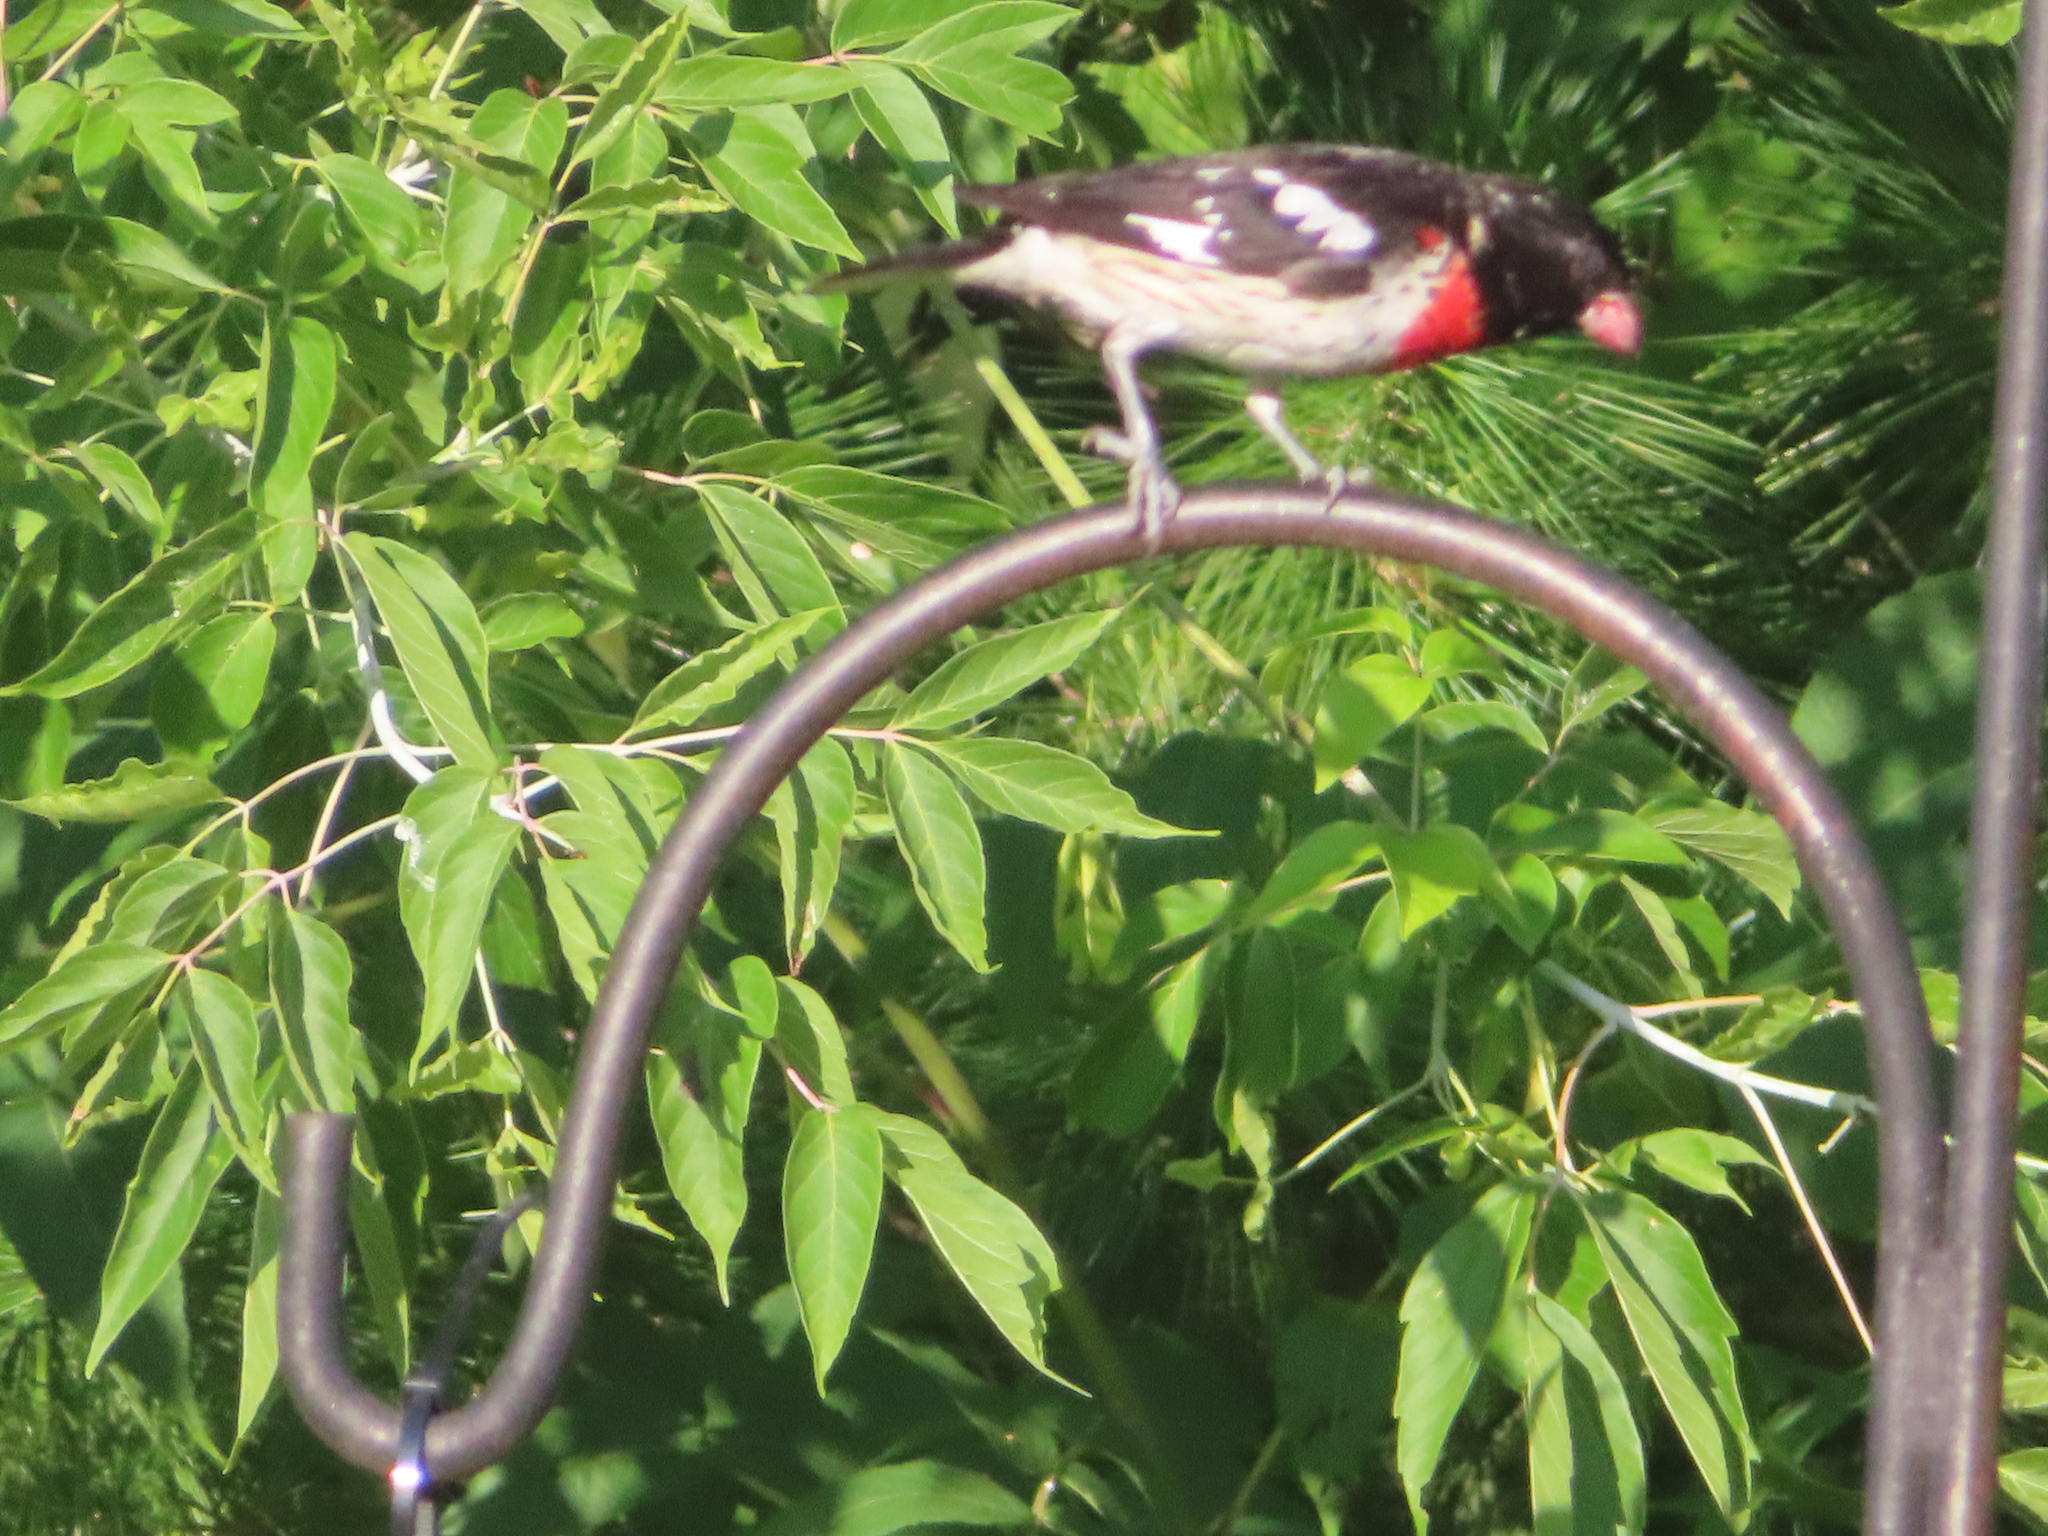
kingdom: Animalia
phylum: Chordata
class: Aves
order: Passeriformes
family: Cardinalidae
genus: Pheucticus
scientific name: Pheucticus ludovicianus
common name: Rose-breasted grosbeak
